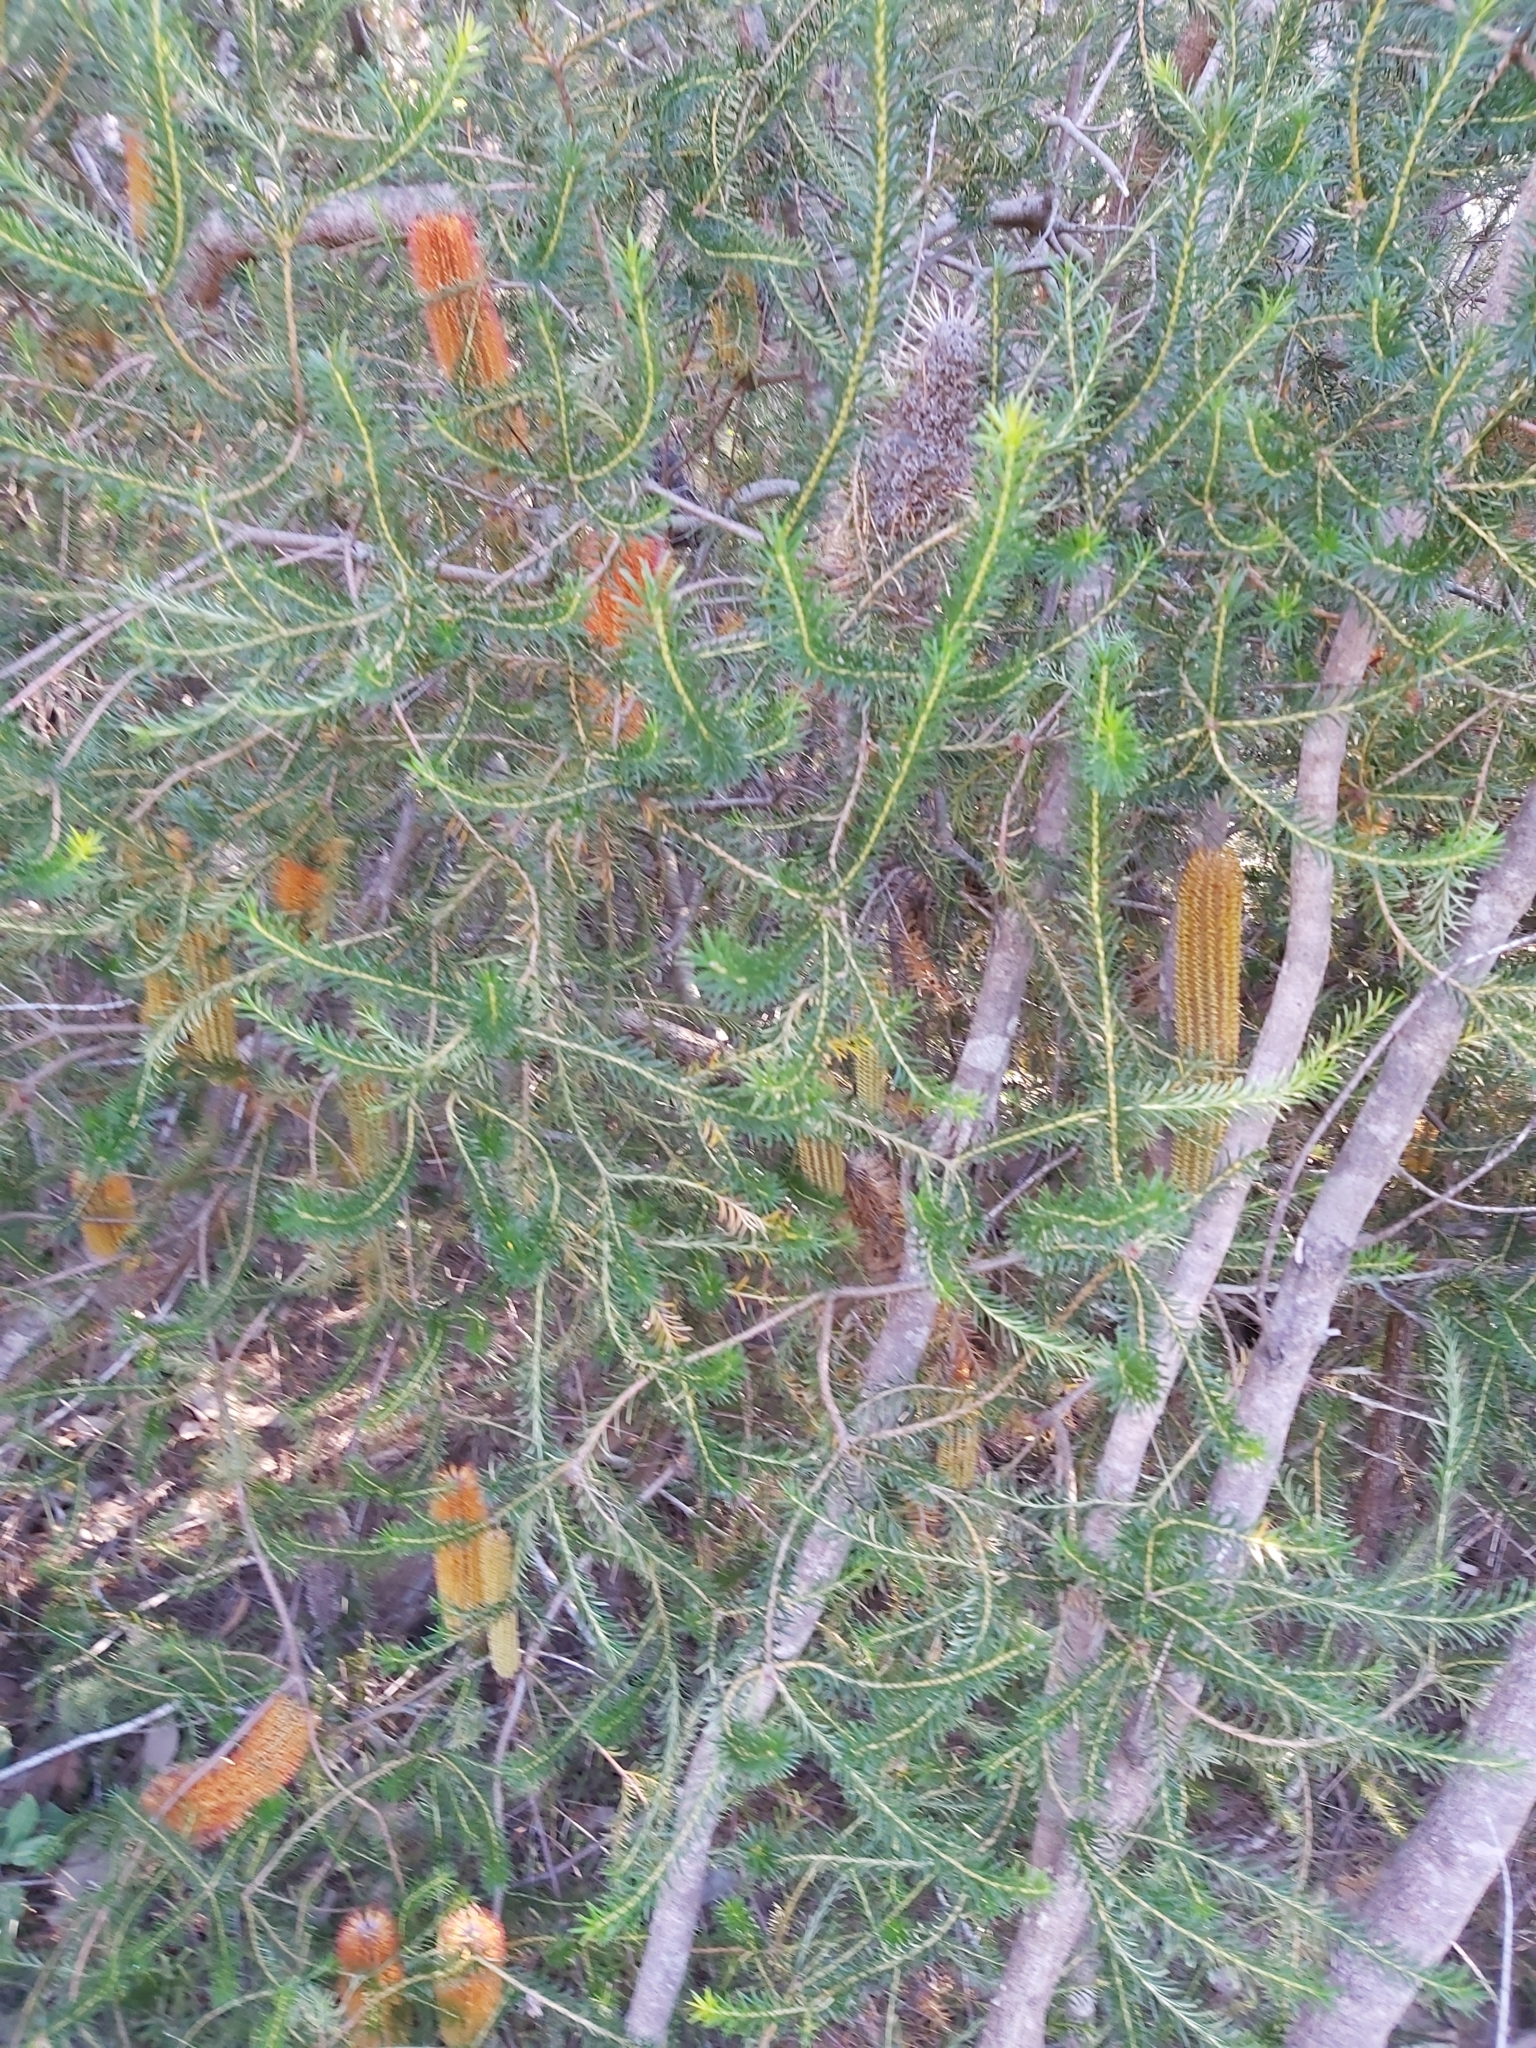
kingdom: Plantae
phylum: Tracheophyta
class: Magnoliopsida
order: Proteales
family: Proteaceae
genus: Banksia
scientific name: Banksia ericifolia
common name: Heath-leaf banksia
